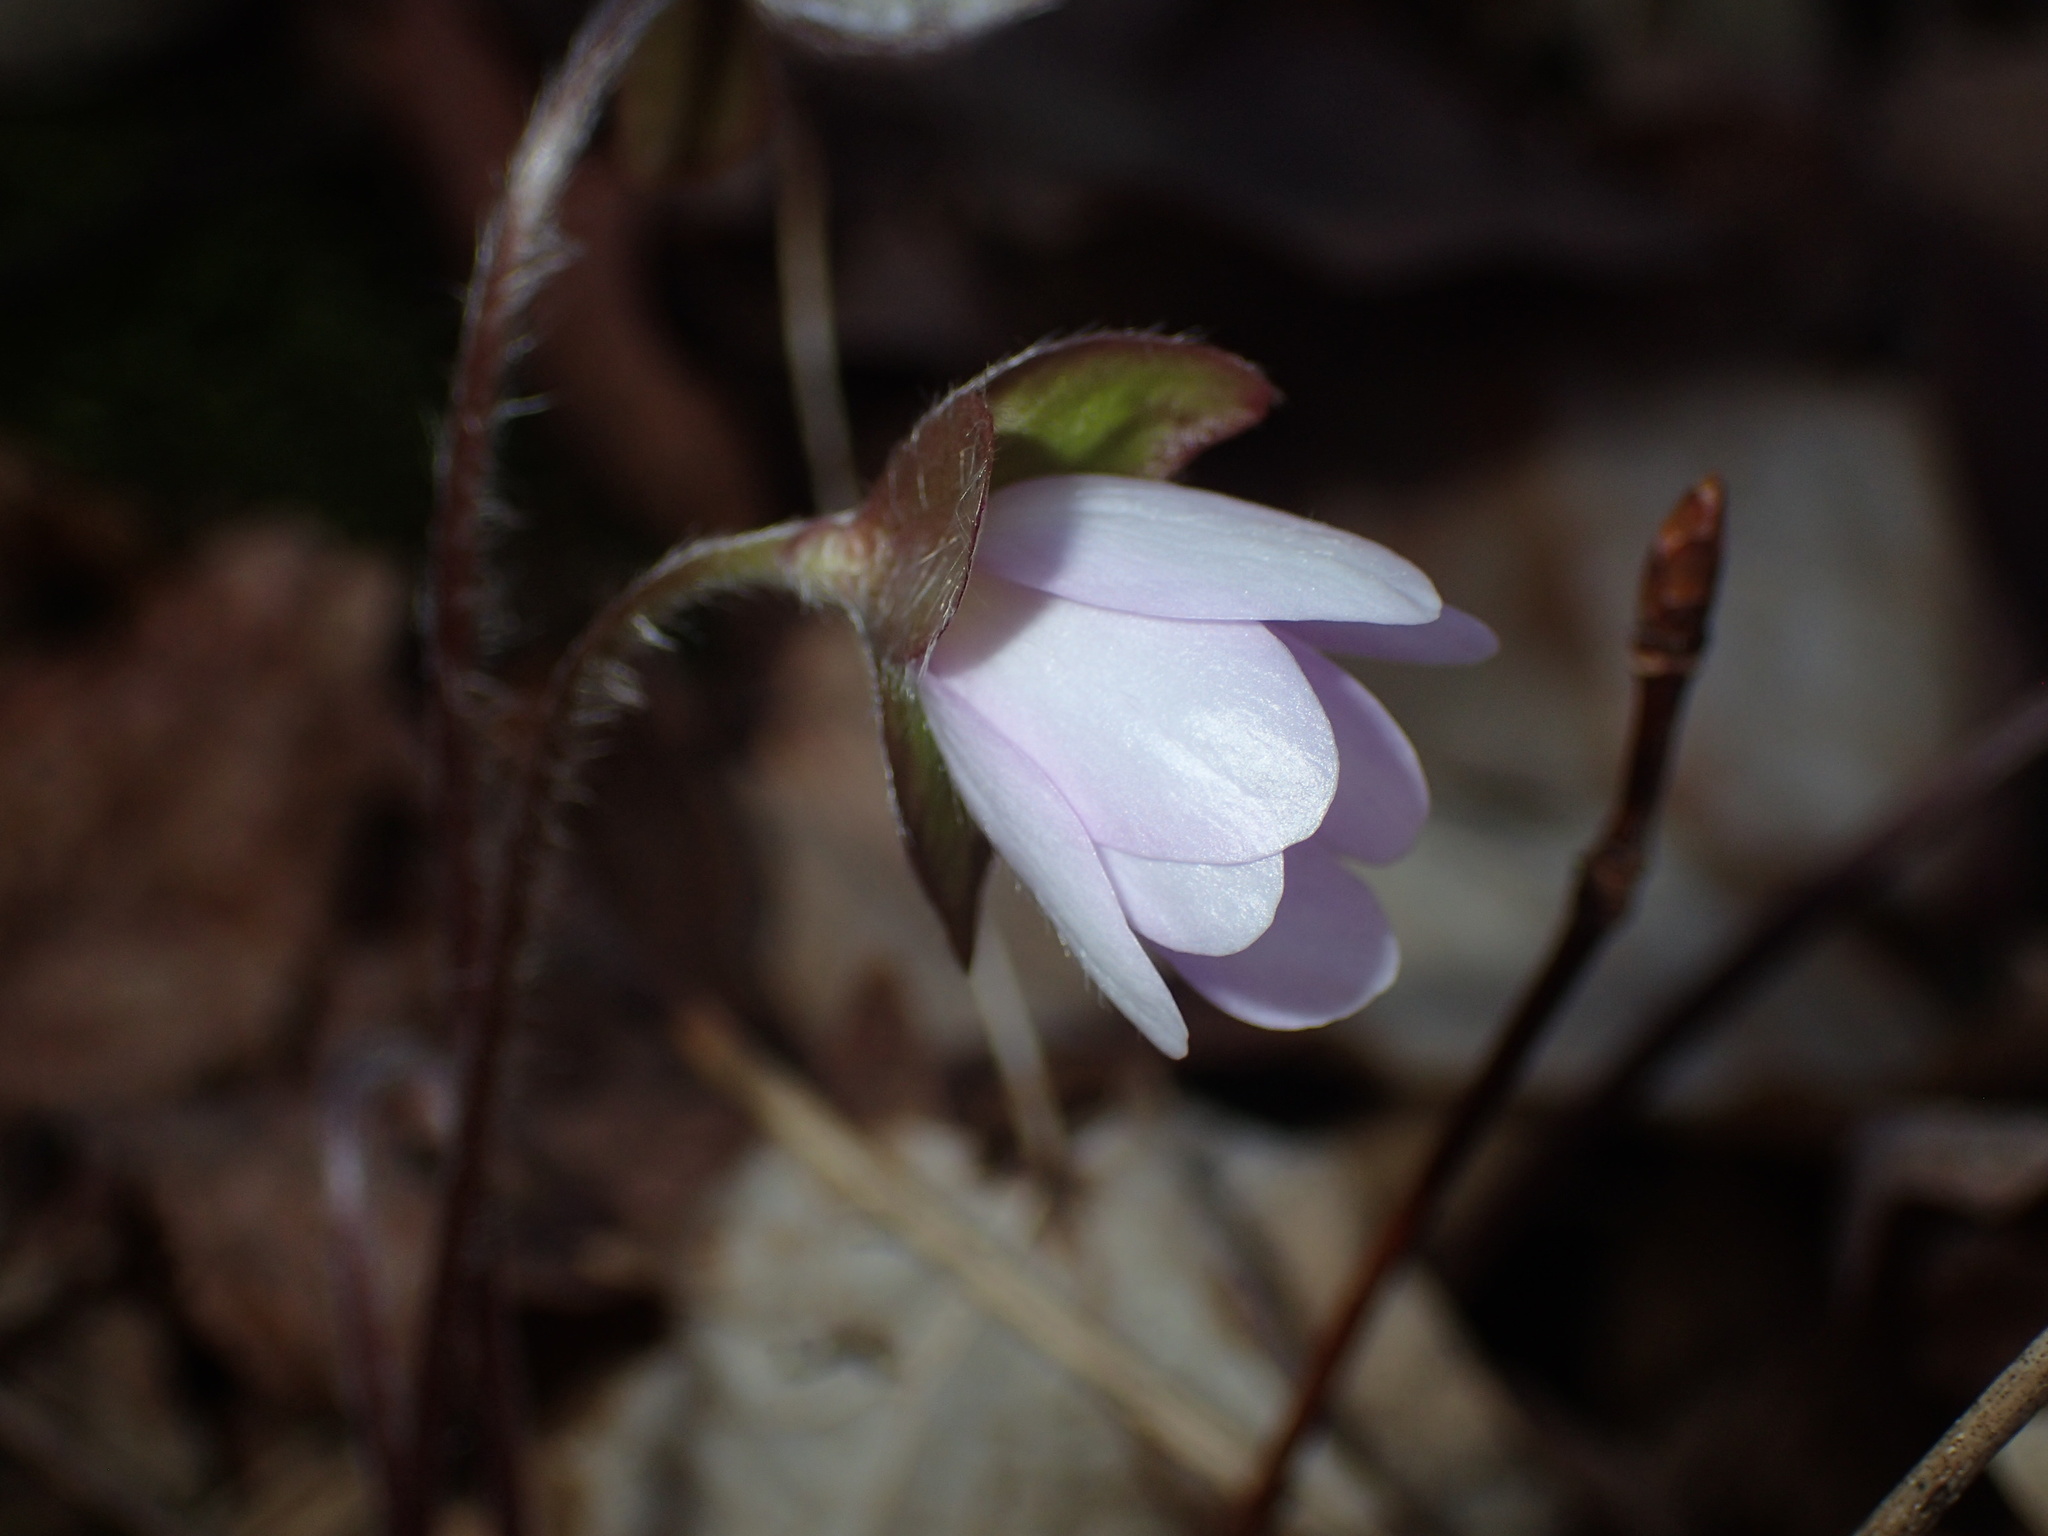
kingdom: Plantae
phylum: Tracheophyta
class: Magnoliopsida
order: Ranunculales
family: Ranunculaceae
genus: Hepatica
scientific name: Hepatica acutiloba
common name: Sharp-lobed hepatica
